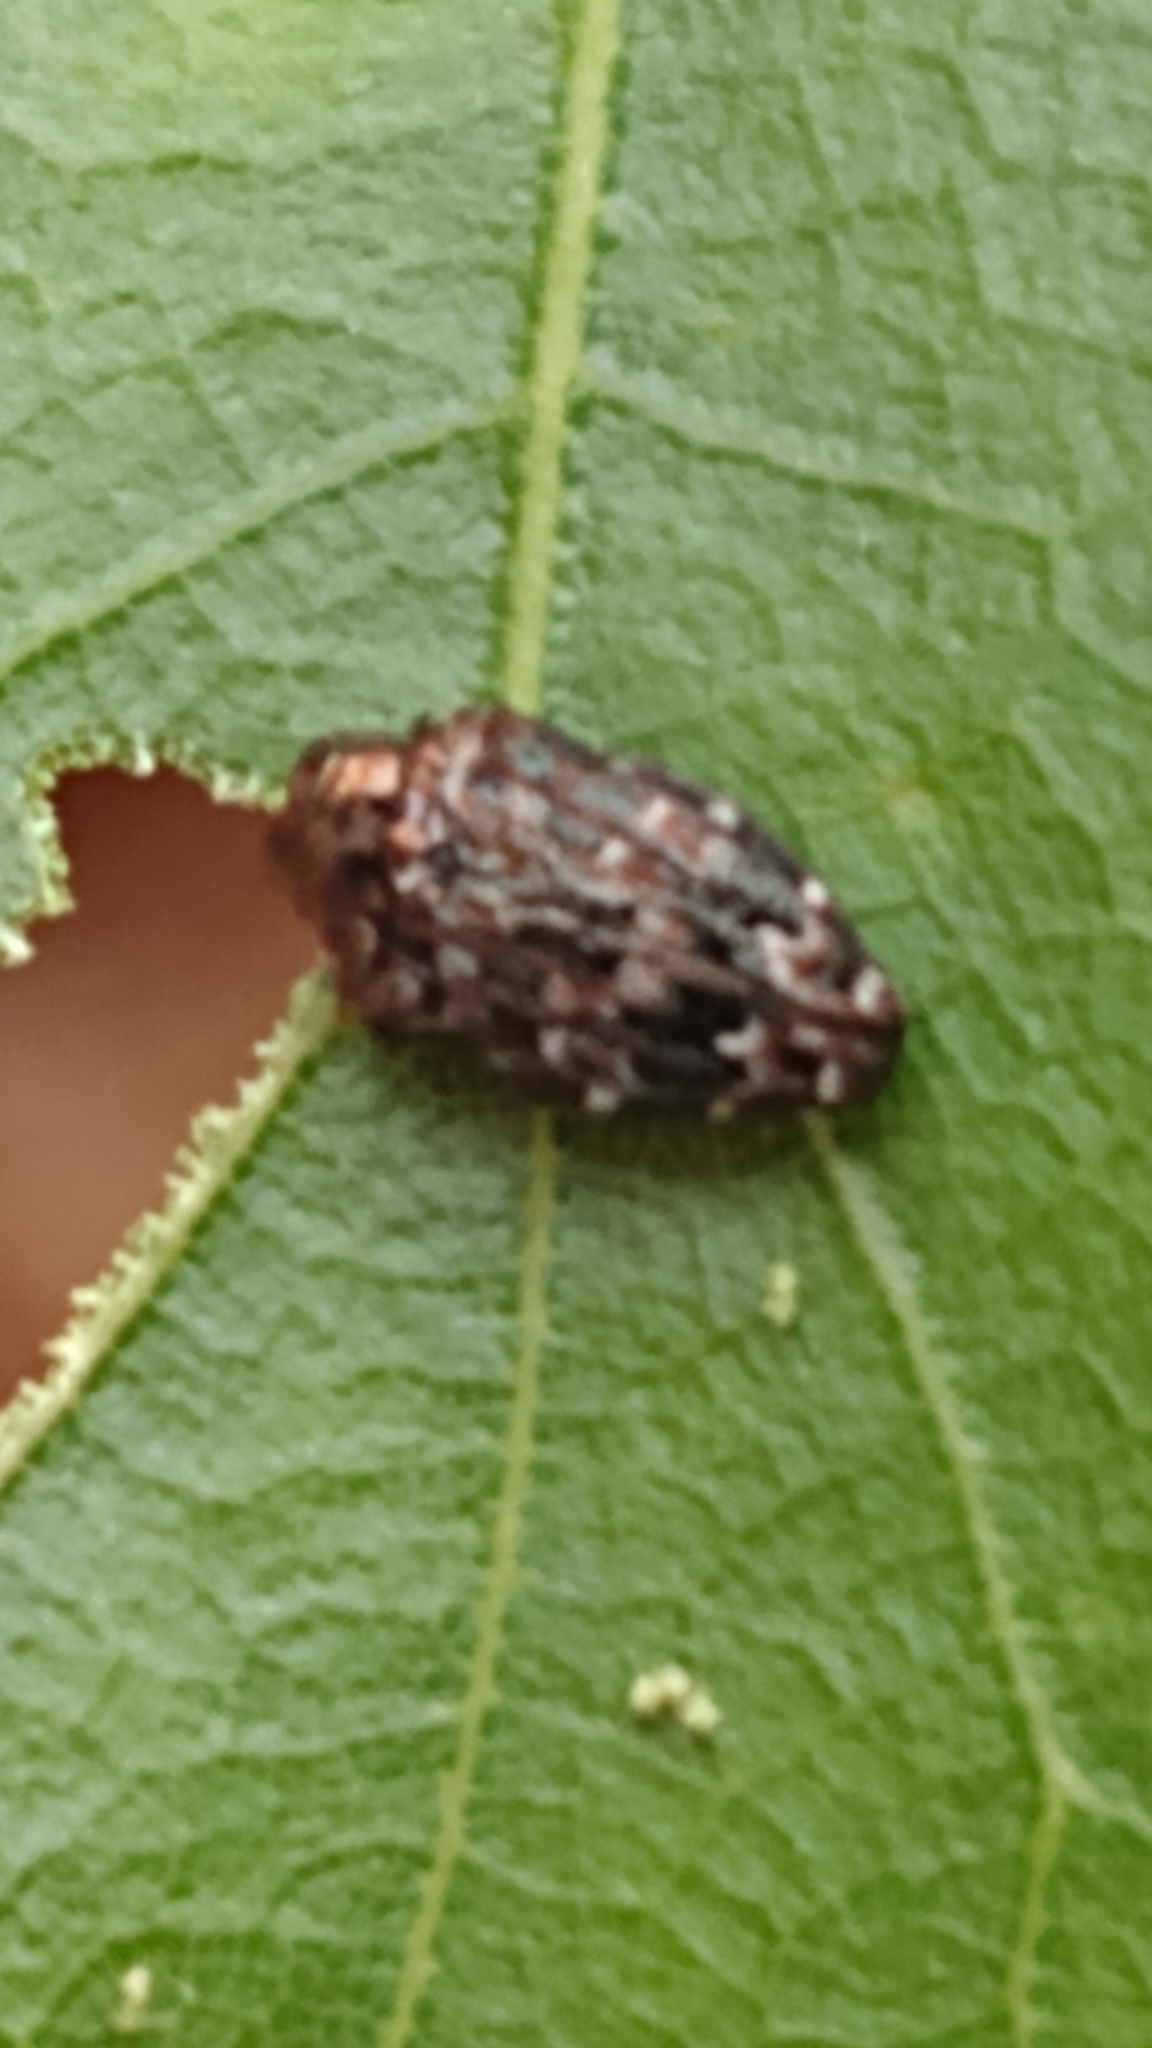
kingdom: Animalia
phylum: Arthropoda
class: Insecta
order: Coleoptera
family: Buprestidae
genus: Brachys
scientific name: Brachys ovatus
